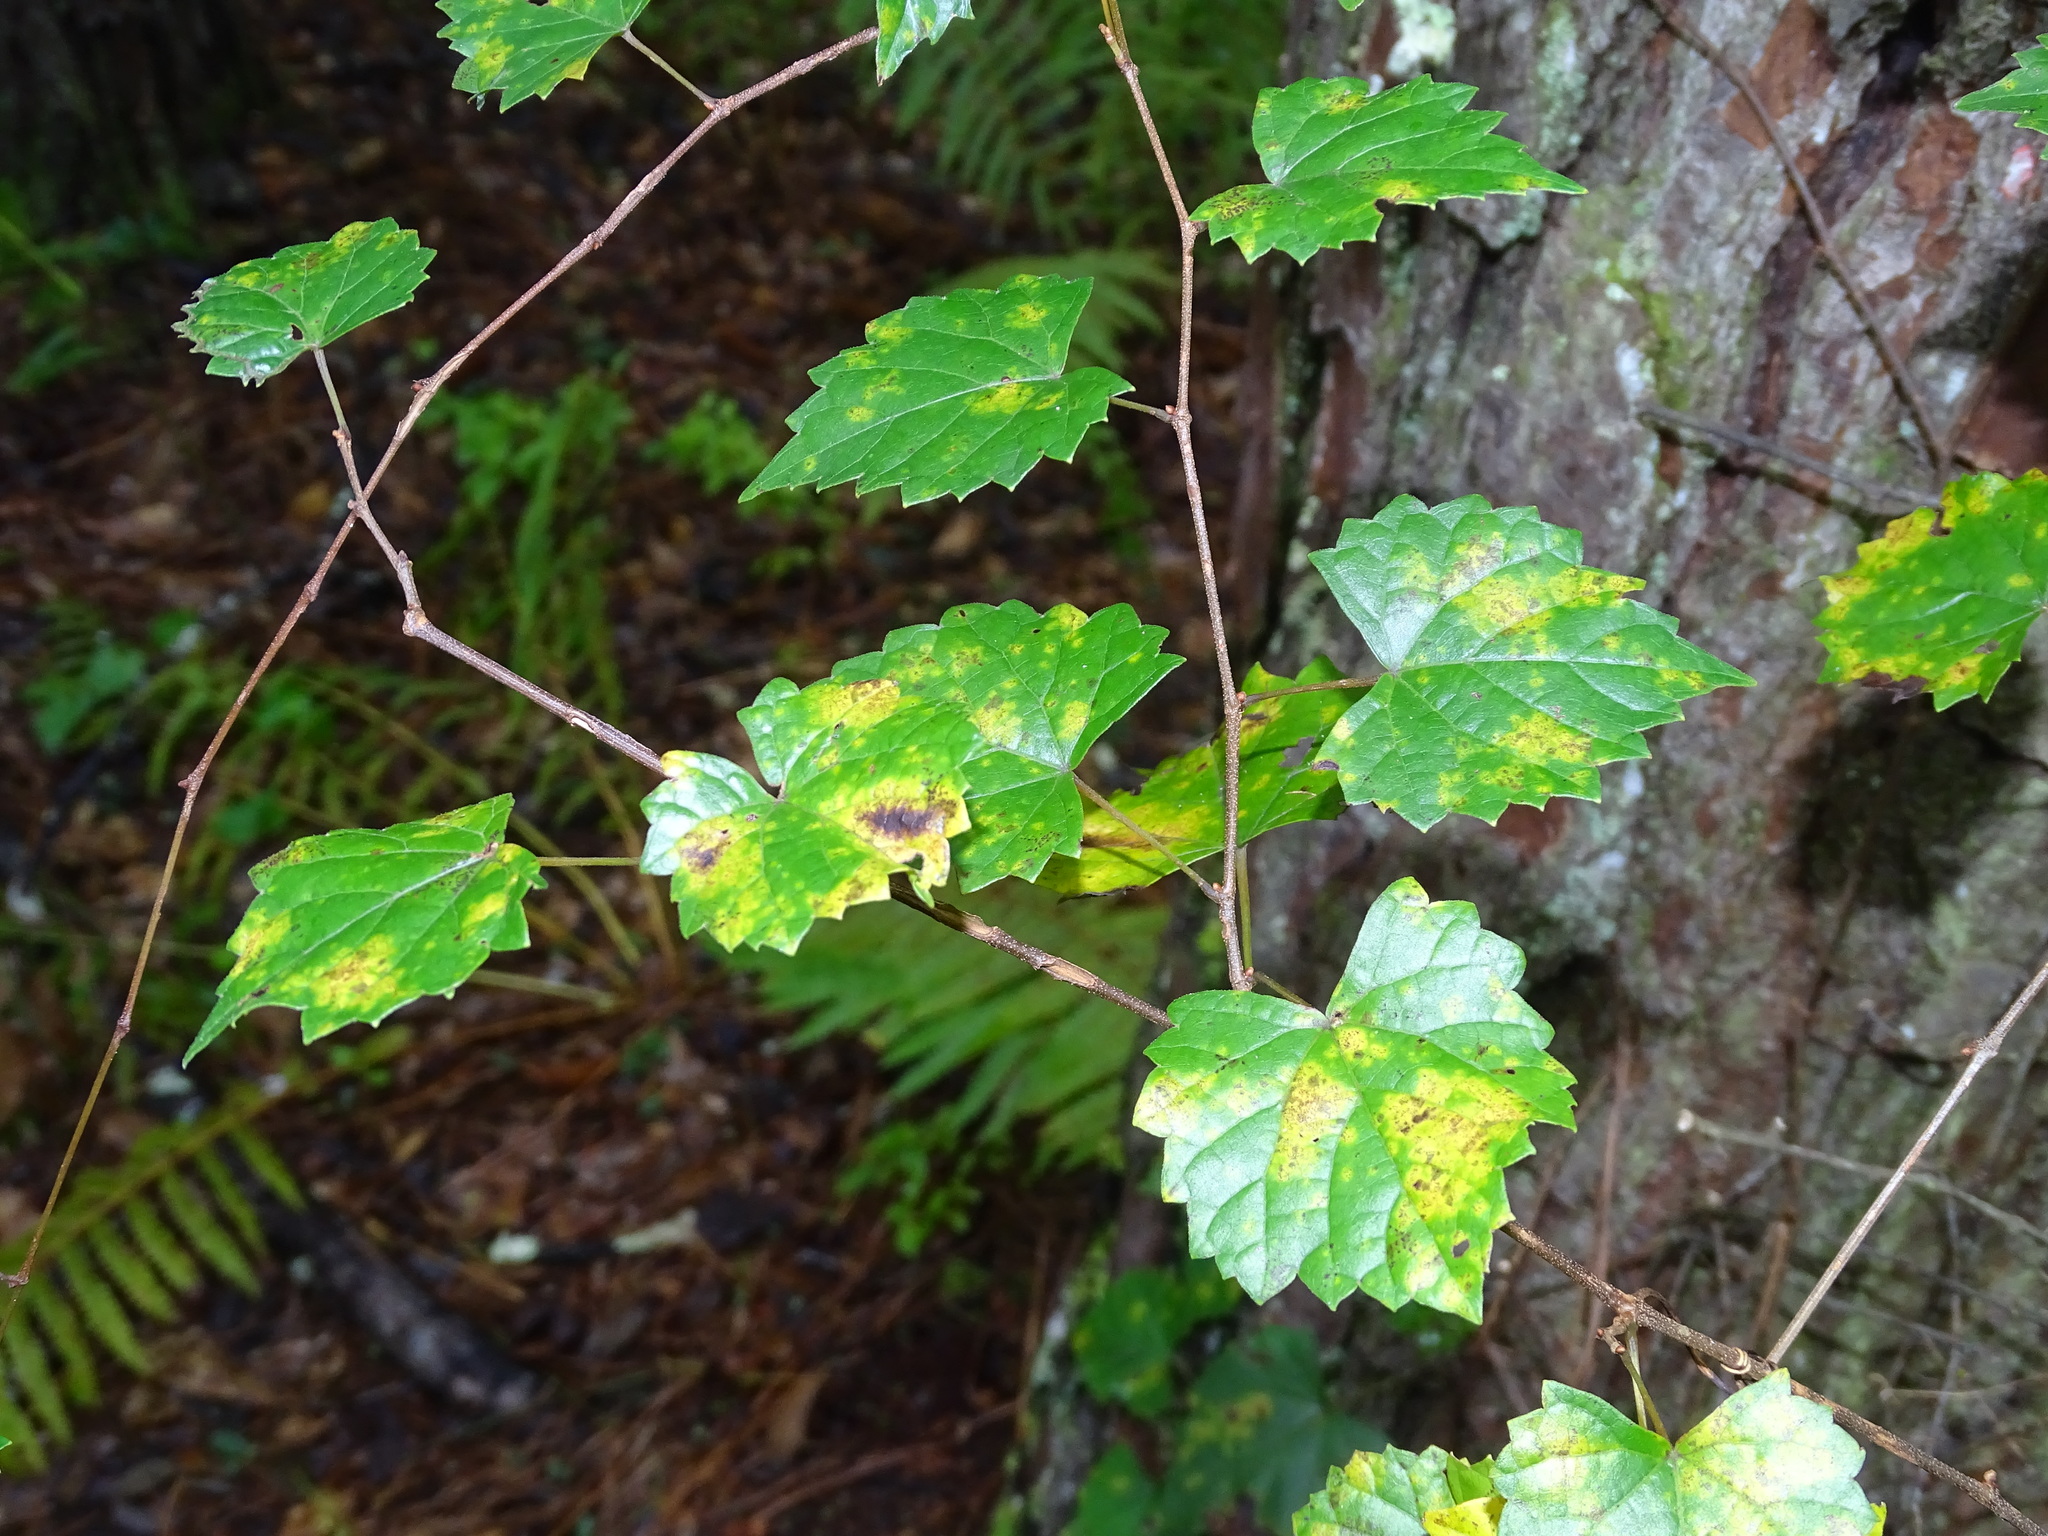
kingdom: Plantae
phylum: Tracheophyta
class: Magnoliopsida
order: Vitales
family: Vitaceae
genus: Vitis
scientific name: Vitis rotundifolia
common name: Muscadine grape
